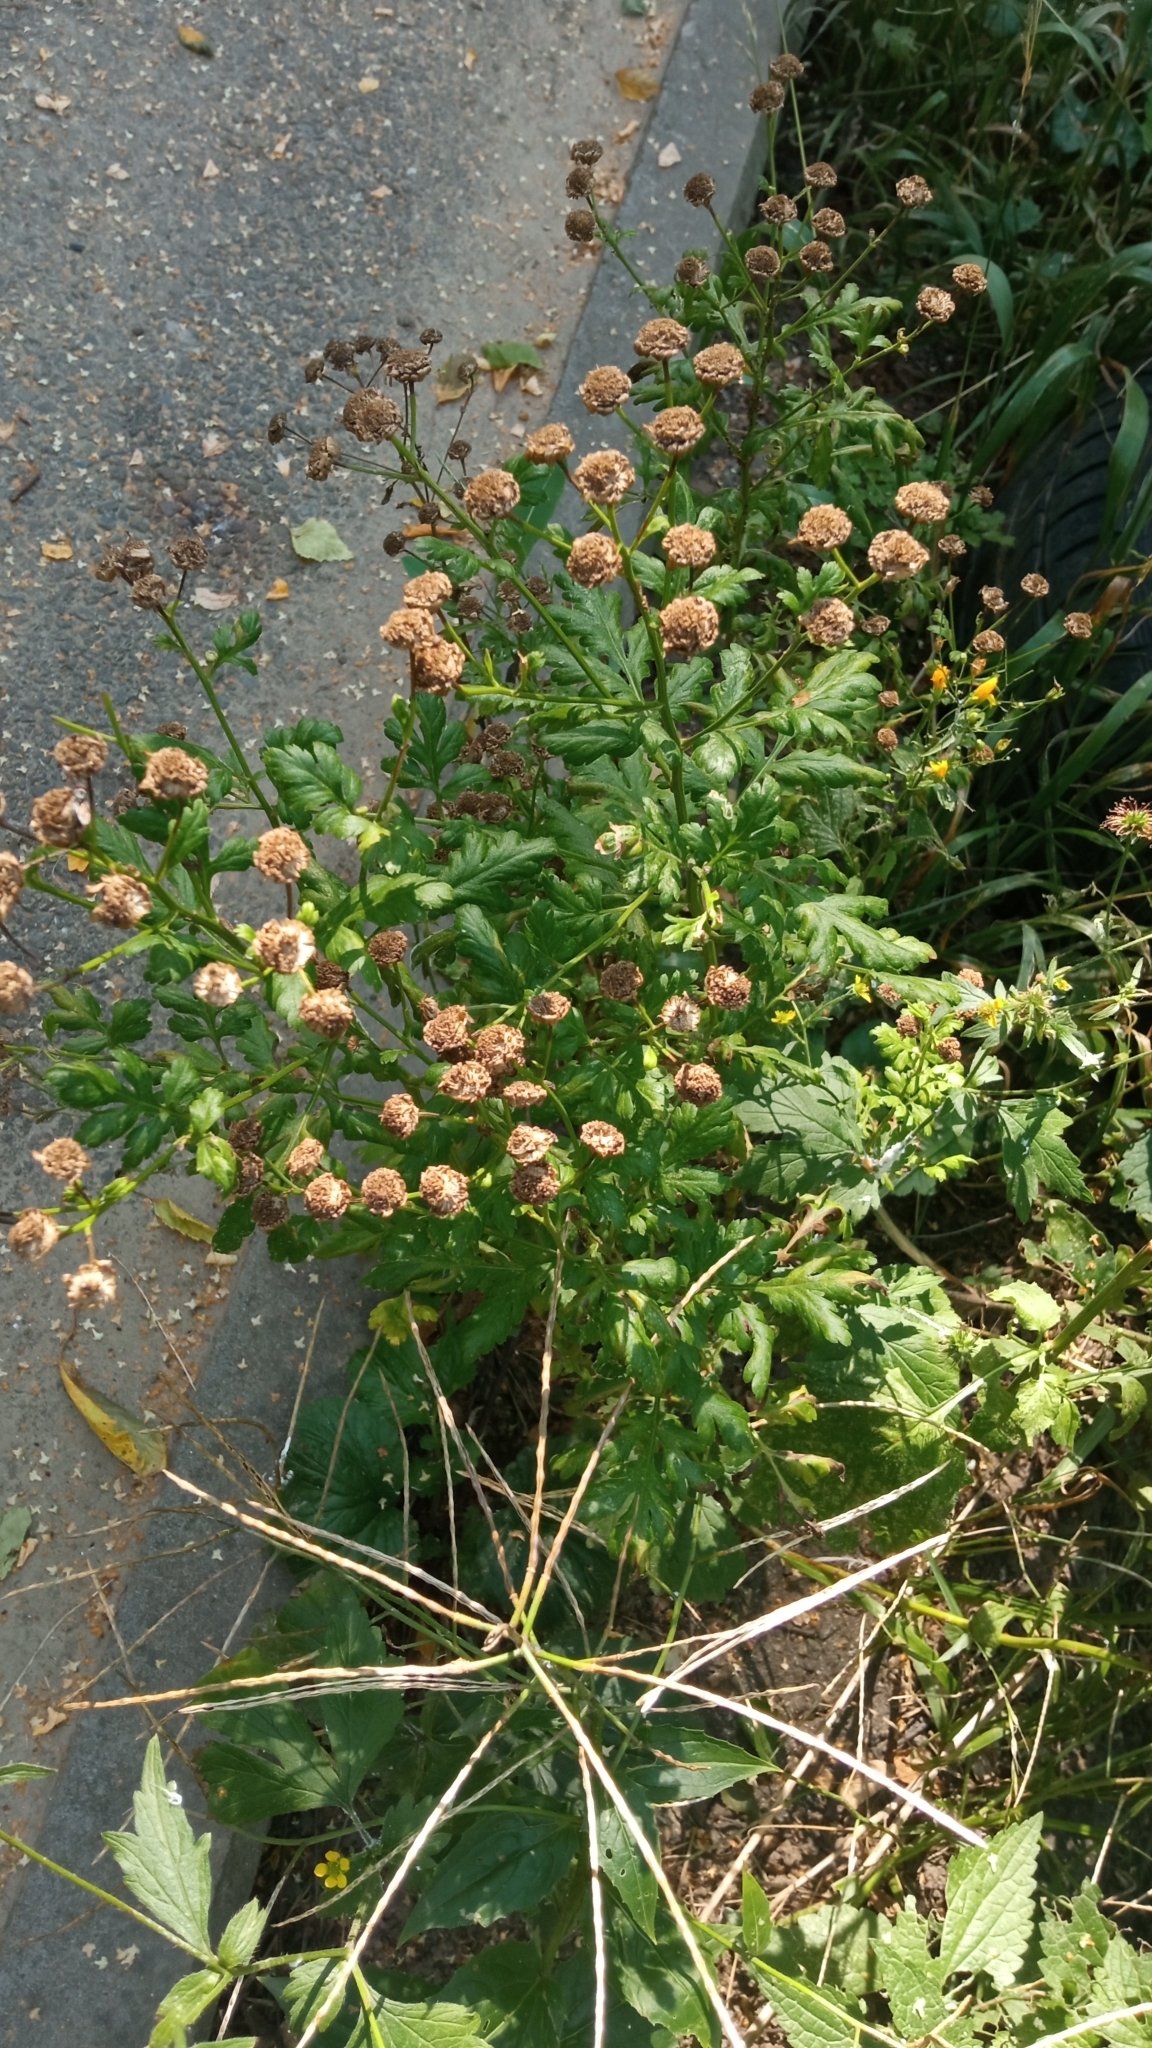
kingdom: Plantae
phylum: Tracheophyta
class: Magnoliopsida
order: Asterales
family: Asteraceae
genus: Tanacetum
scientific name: Tanacetum vulgare
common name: Common tansy
